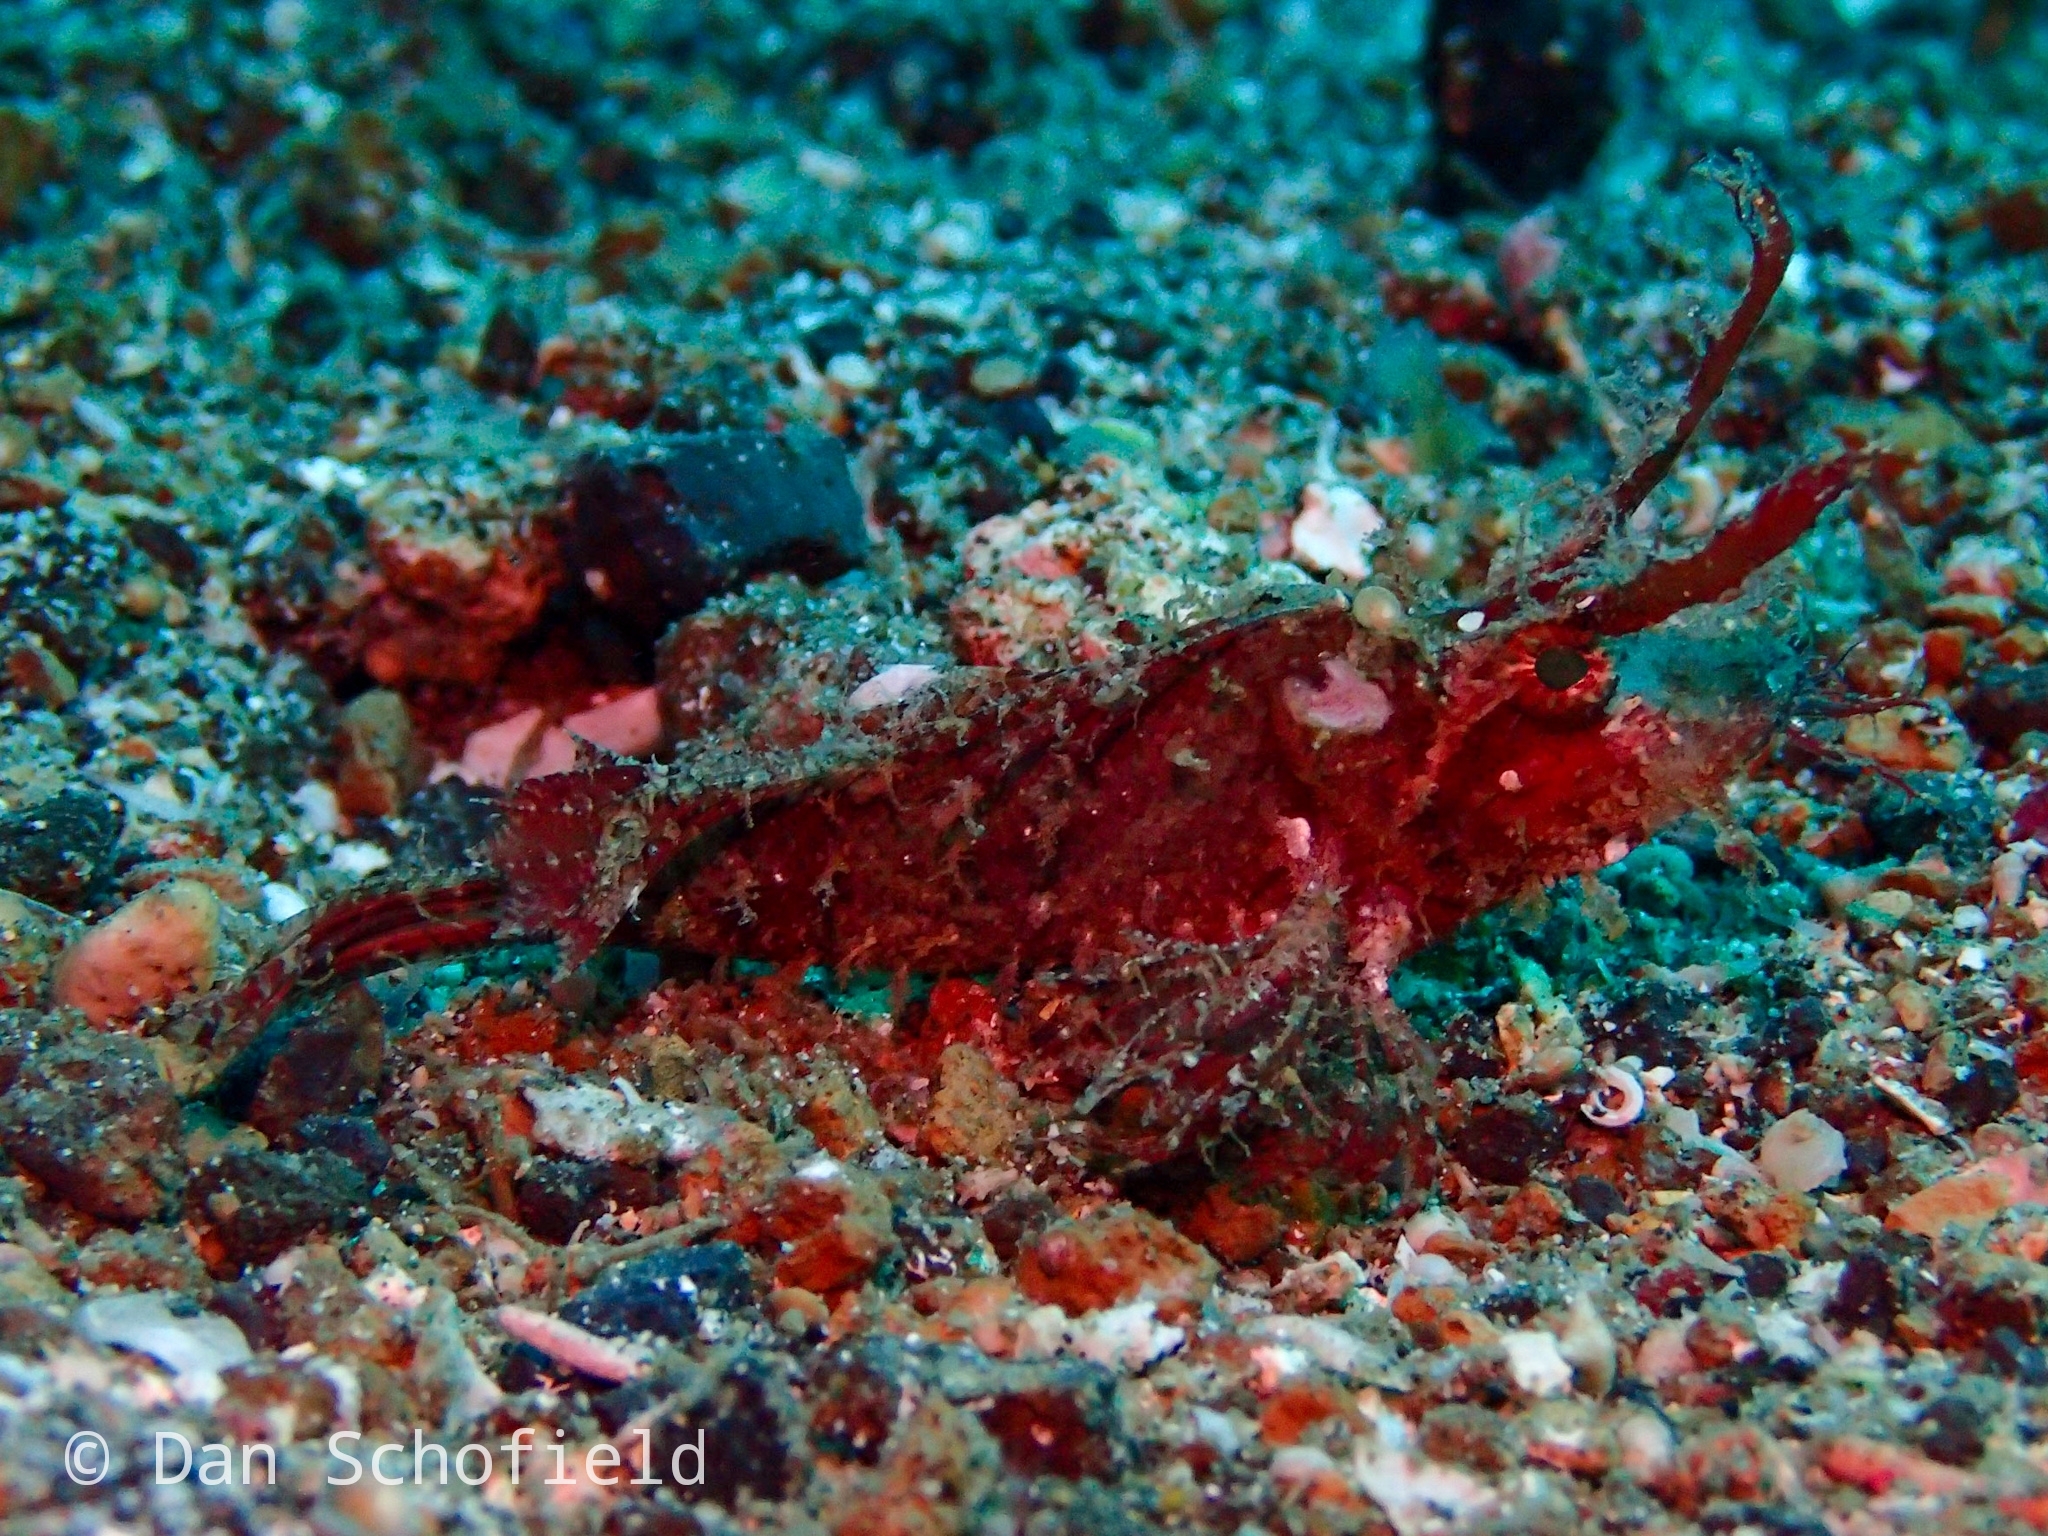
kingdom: Animalia
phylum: Chordata
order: Scorpaeniformes
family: Scorpaenidae
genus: Pteroidichthys
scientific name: Pteroidichthys amboinensis
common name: Ambon scorpionfish
